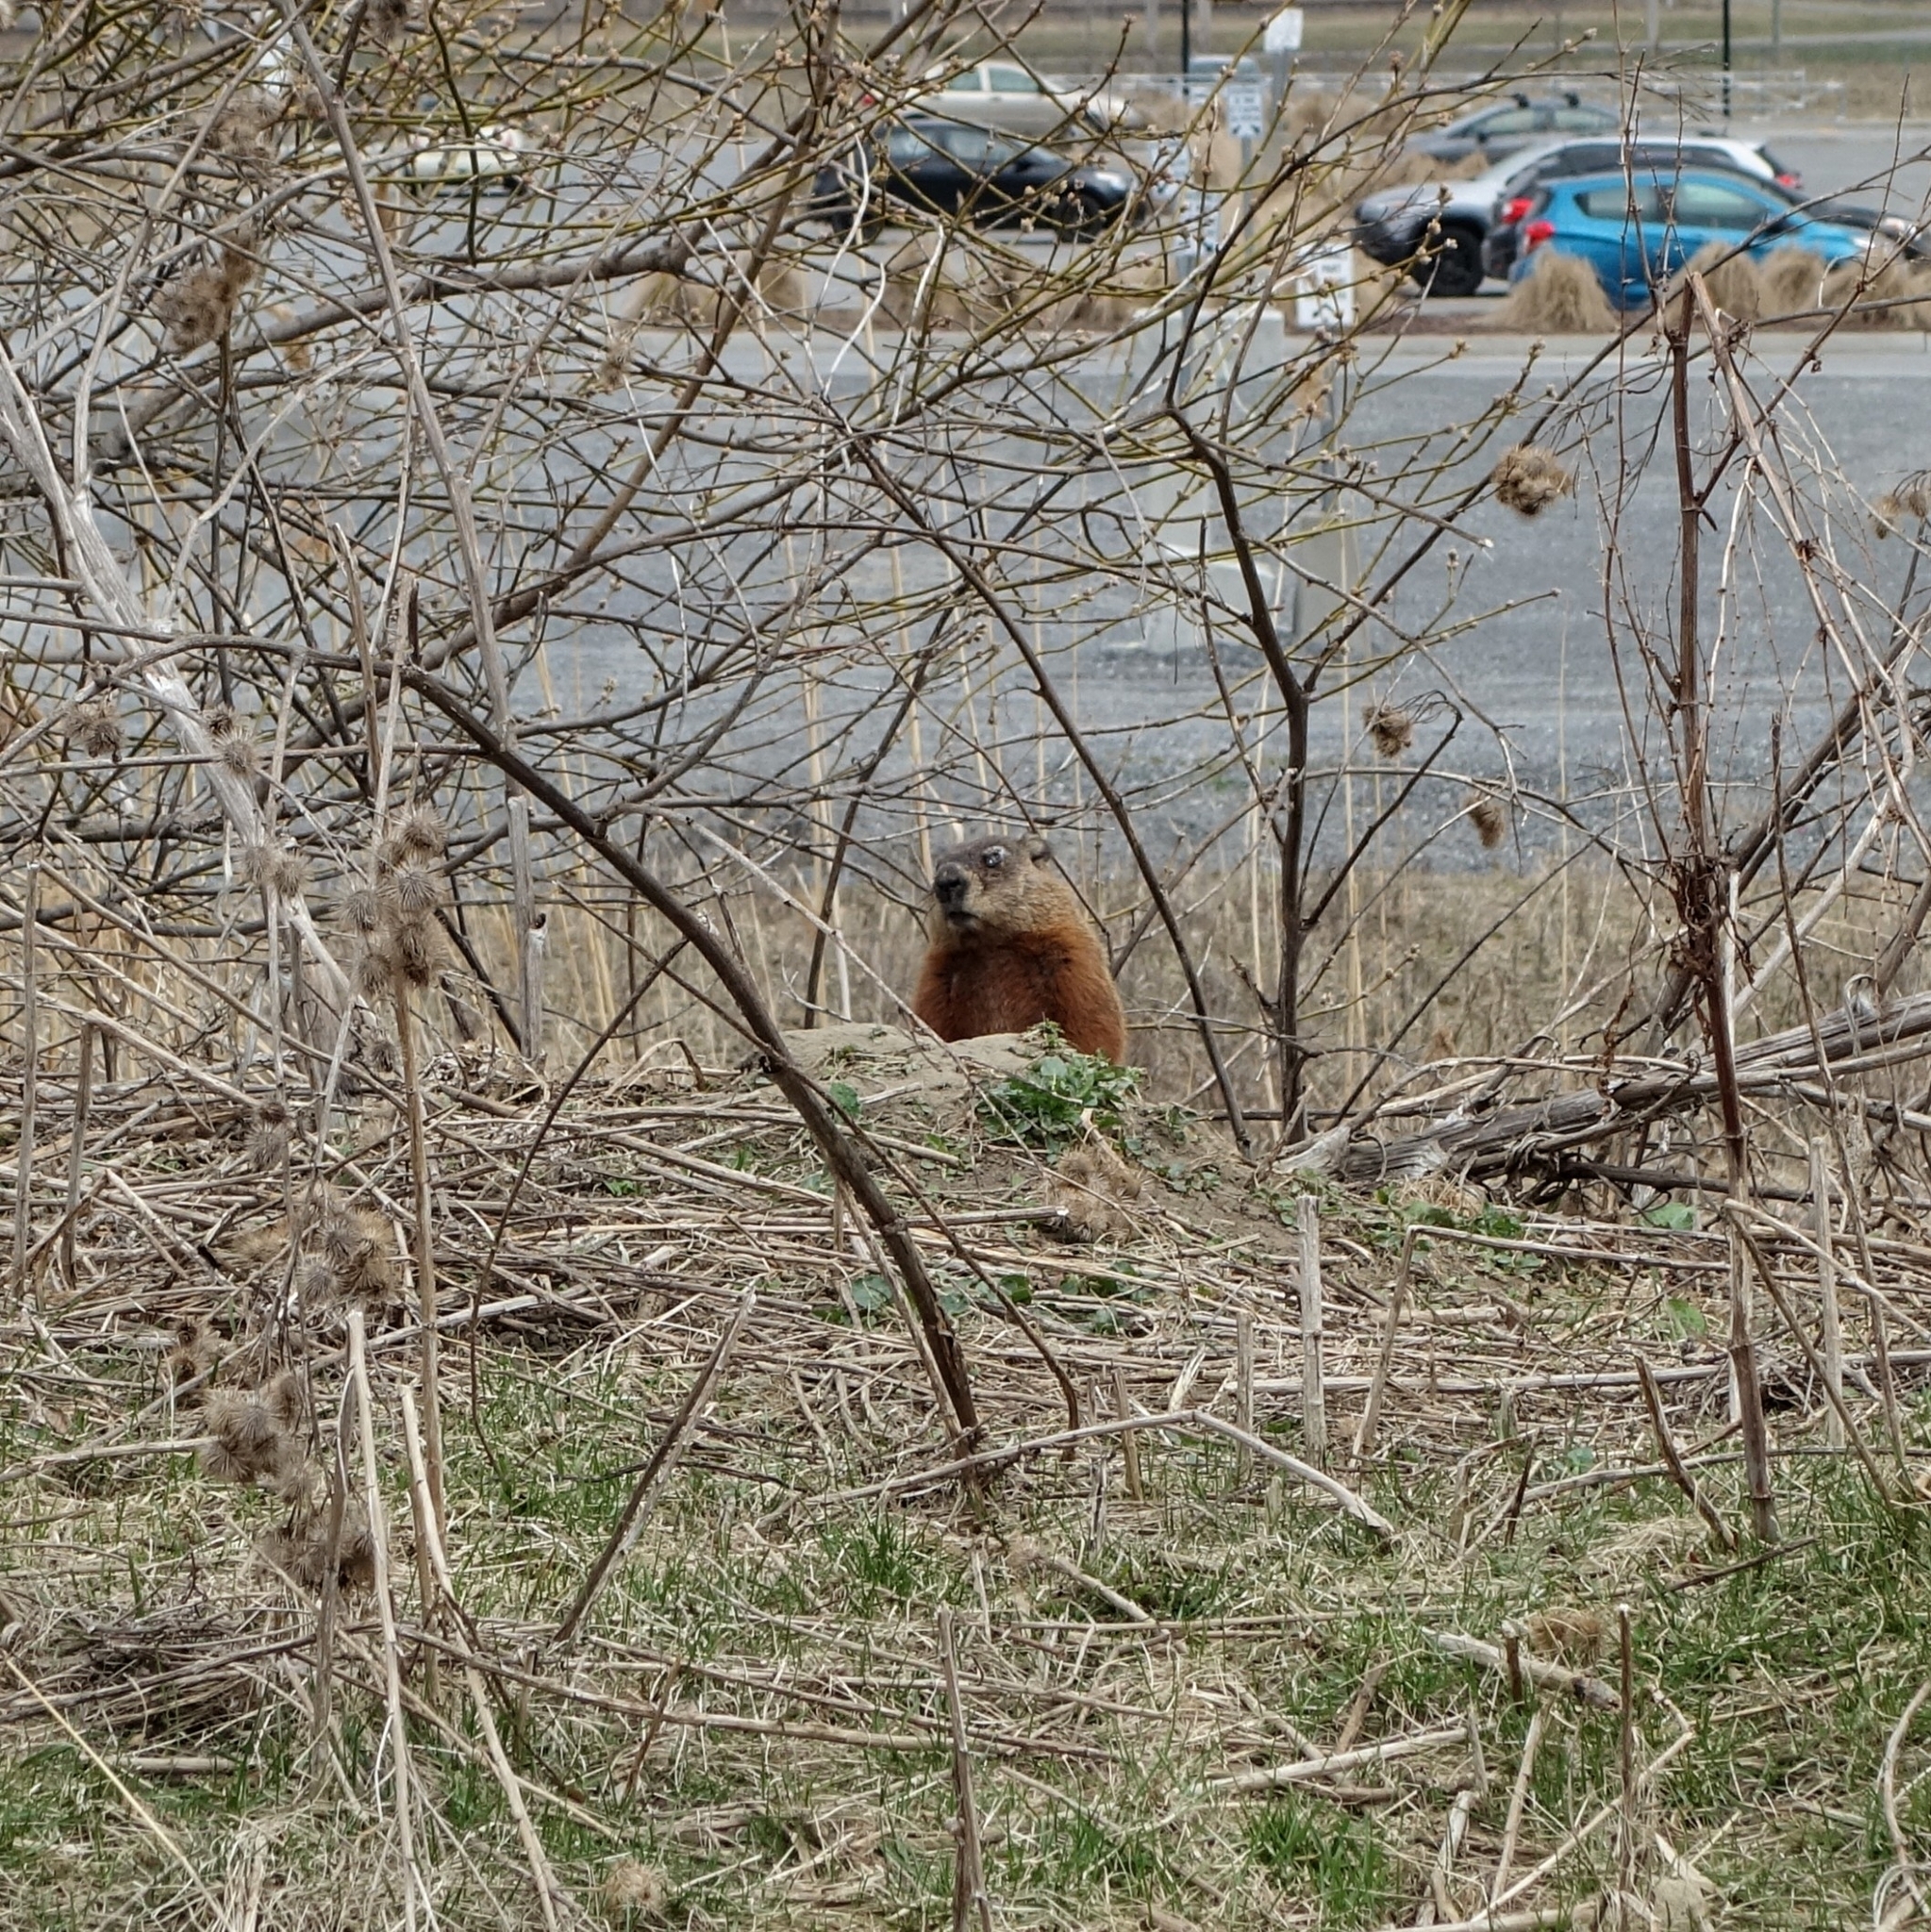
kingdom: Animalia
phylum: Chordata
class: Mammalia
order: Rodentia
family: Sciuridae
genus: Marmota
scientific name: Marmota monax
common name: Groundhog
